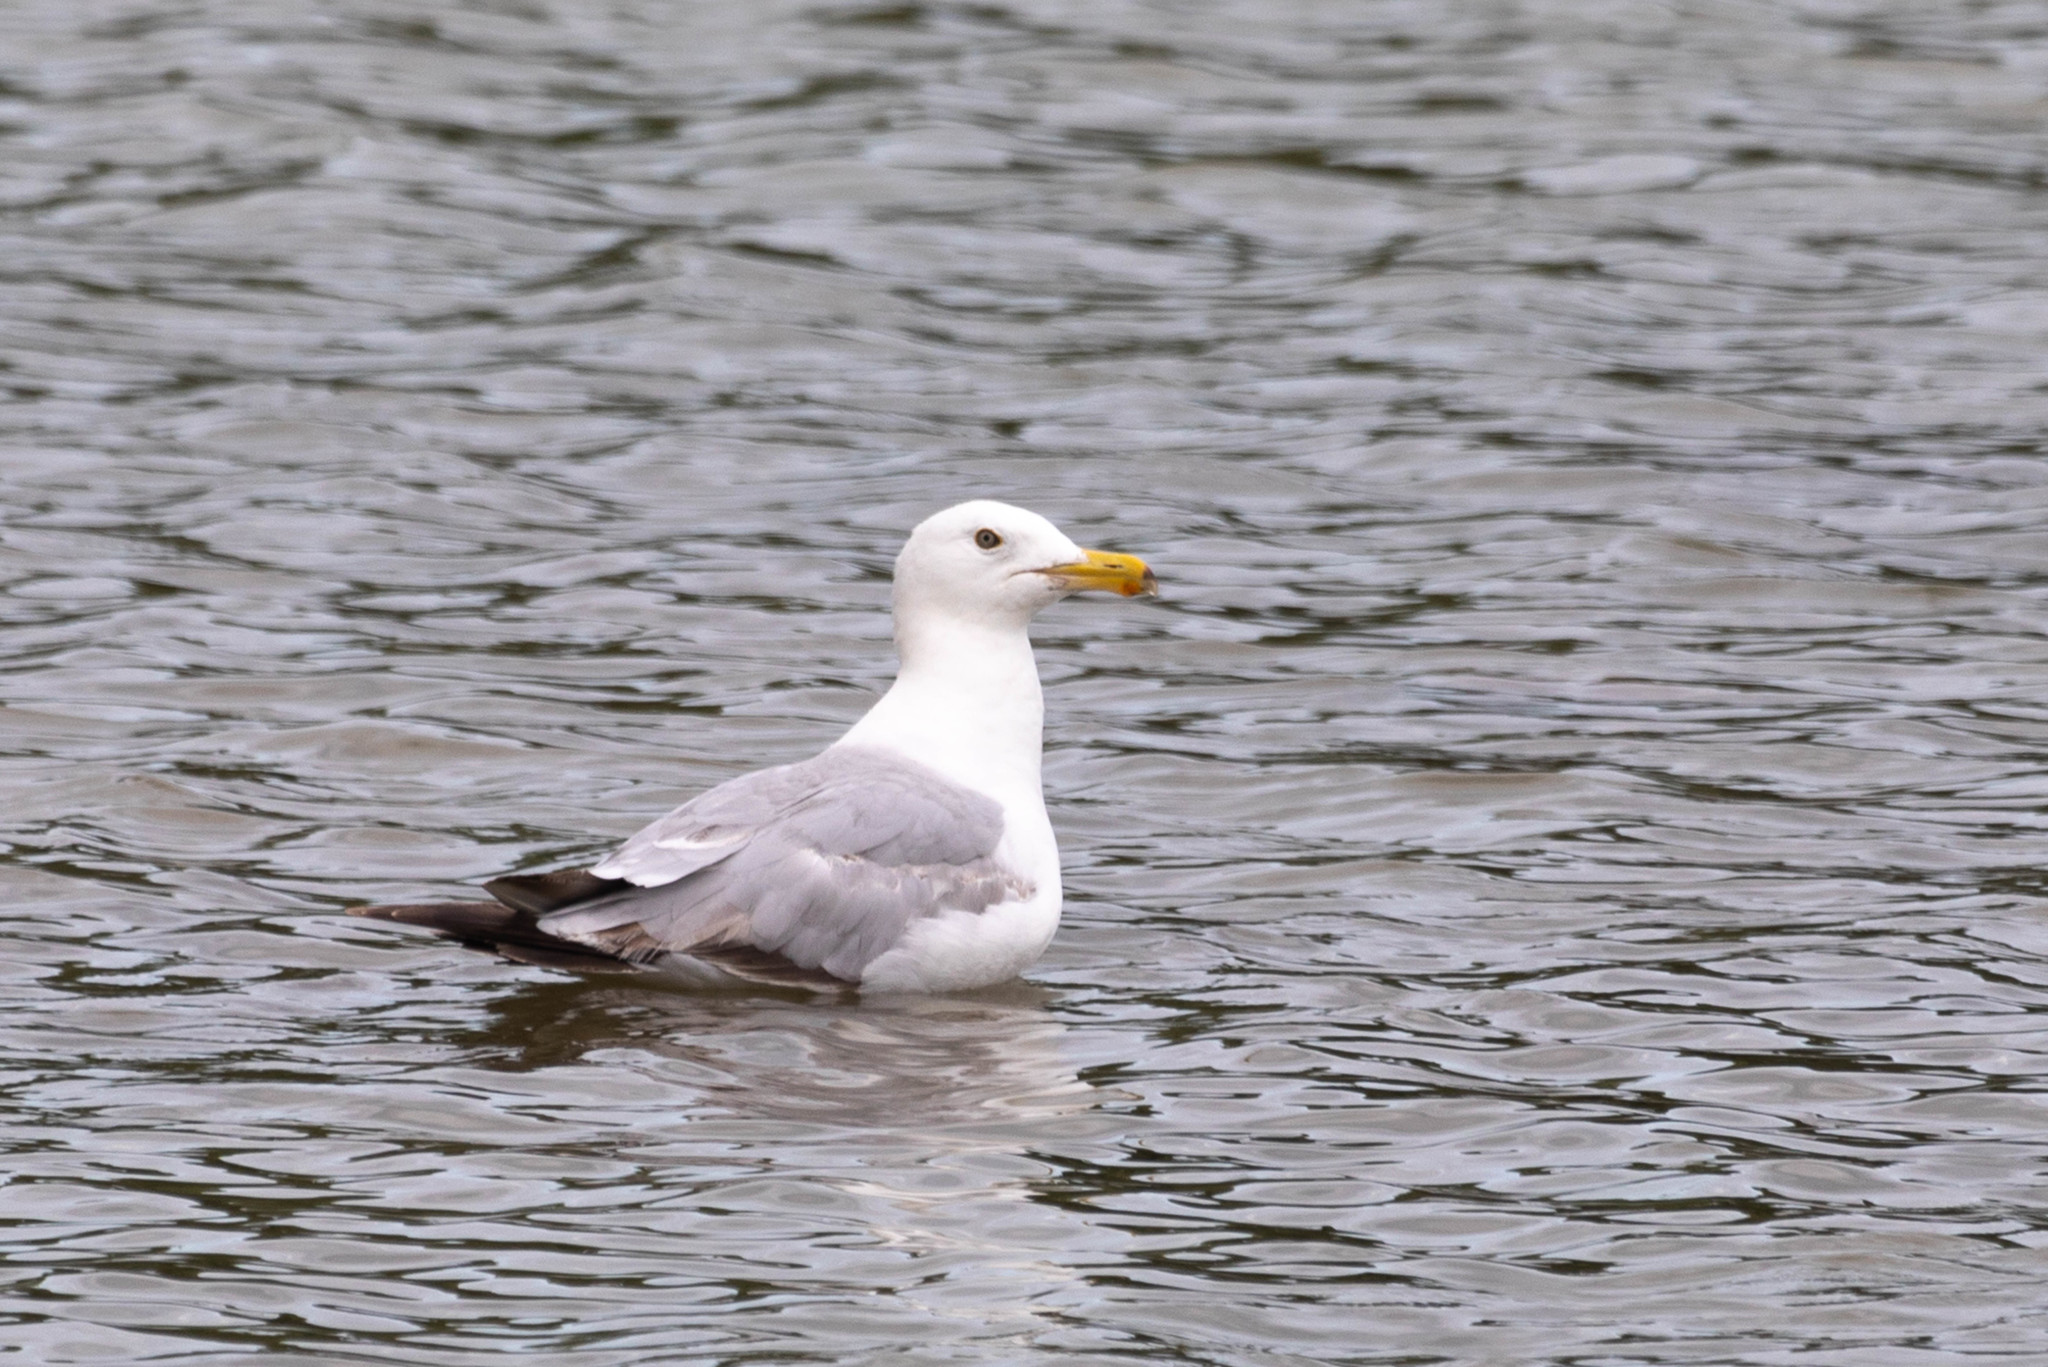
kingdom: Animalia
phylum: Chordata
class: Aves
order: Charadriiformes
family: Laridae
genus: Larus
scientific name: Larus argentatus
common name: Herring gull
